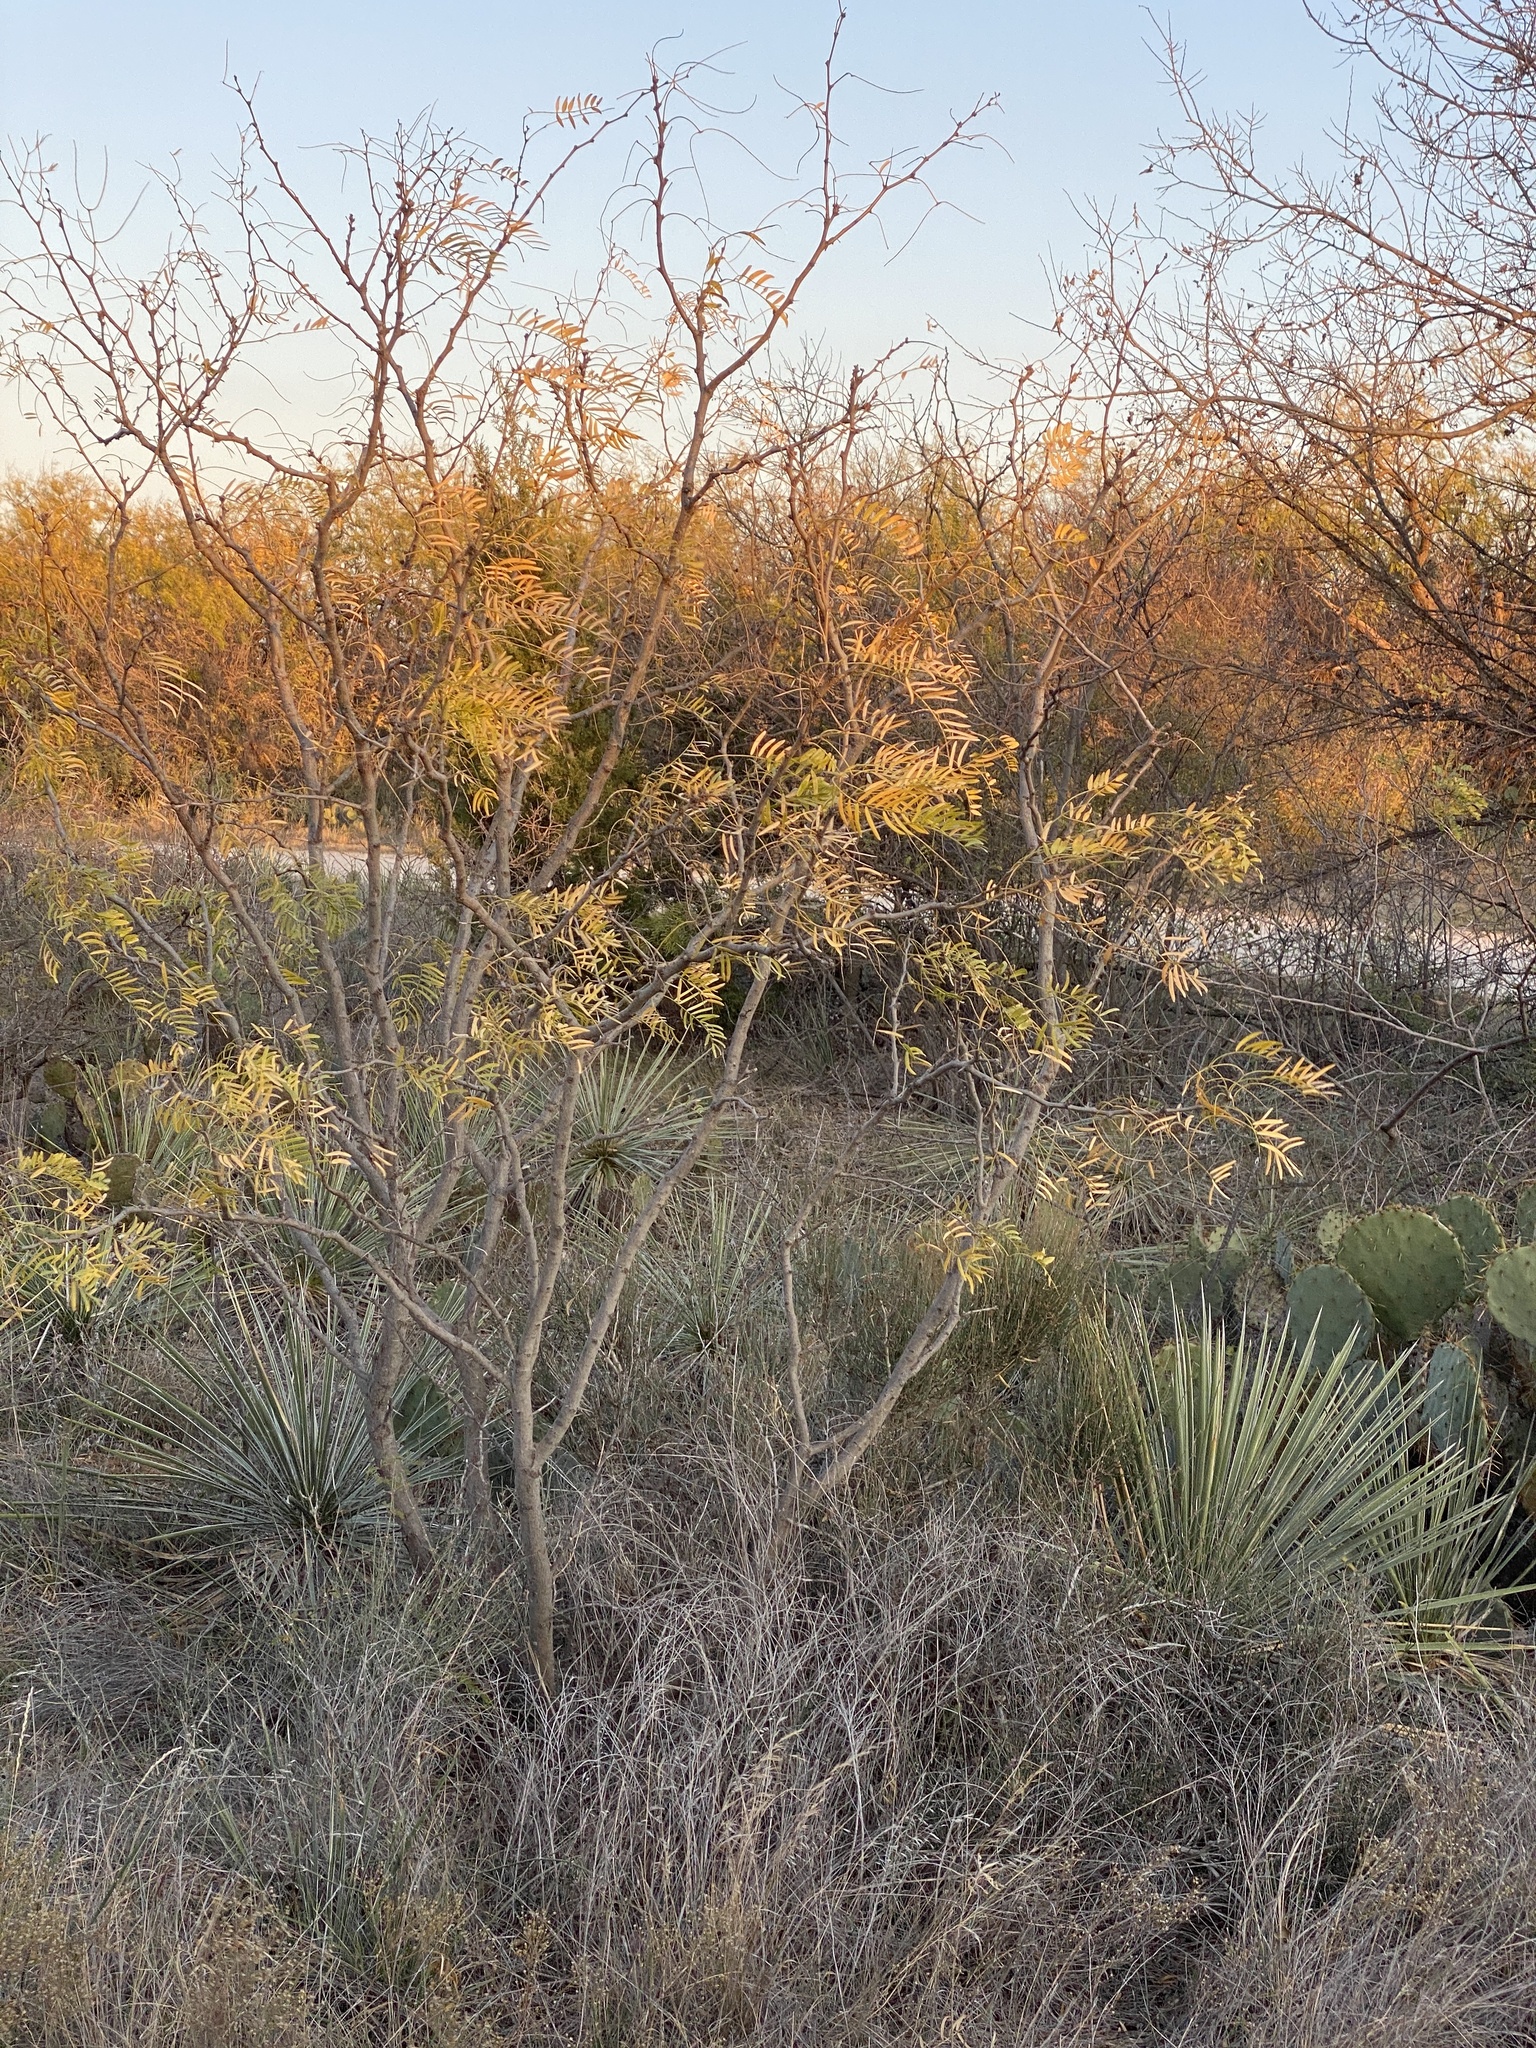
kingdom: Plantae
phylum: Tracheophyta
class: Magnoliopsida
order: Fabales
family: Fabaceae
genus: Prosopis
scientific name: Prosopis glandulosa
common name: Honey mesquite
